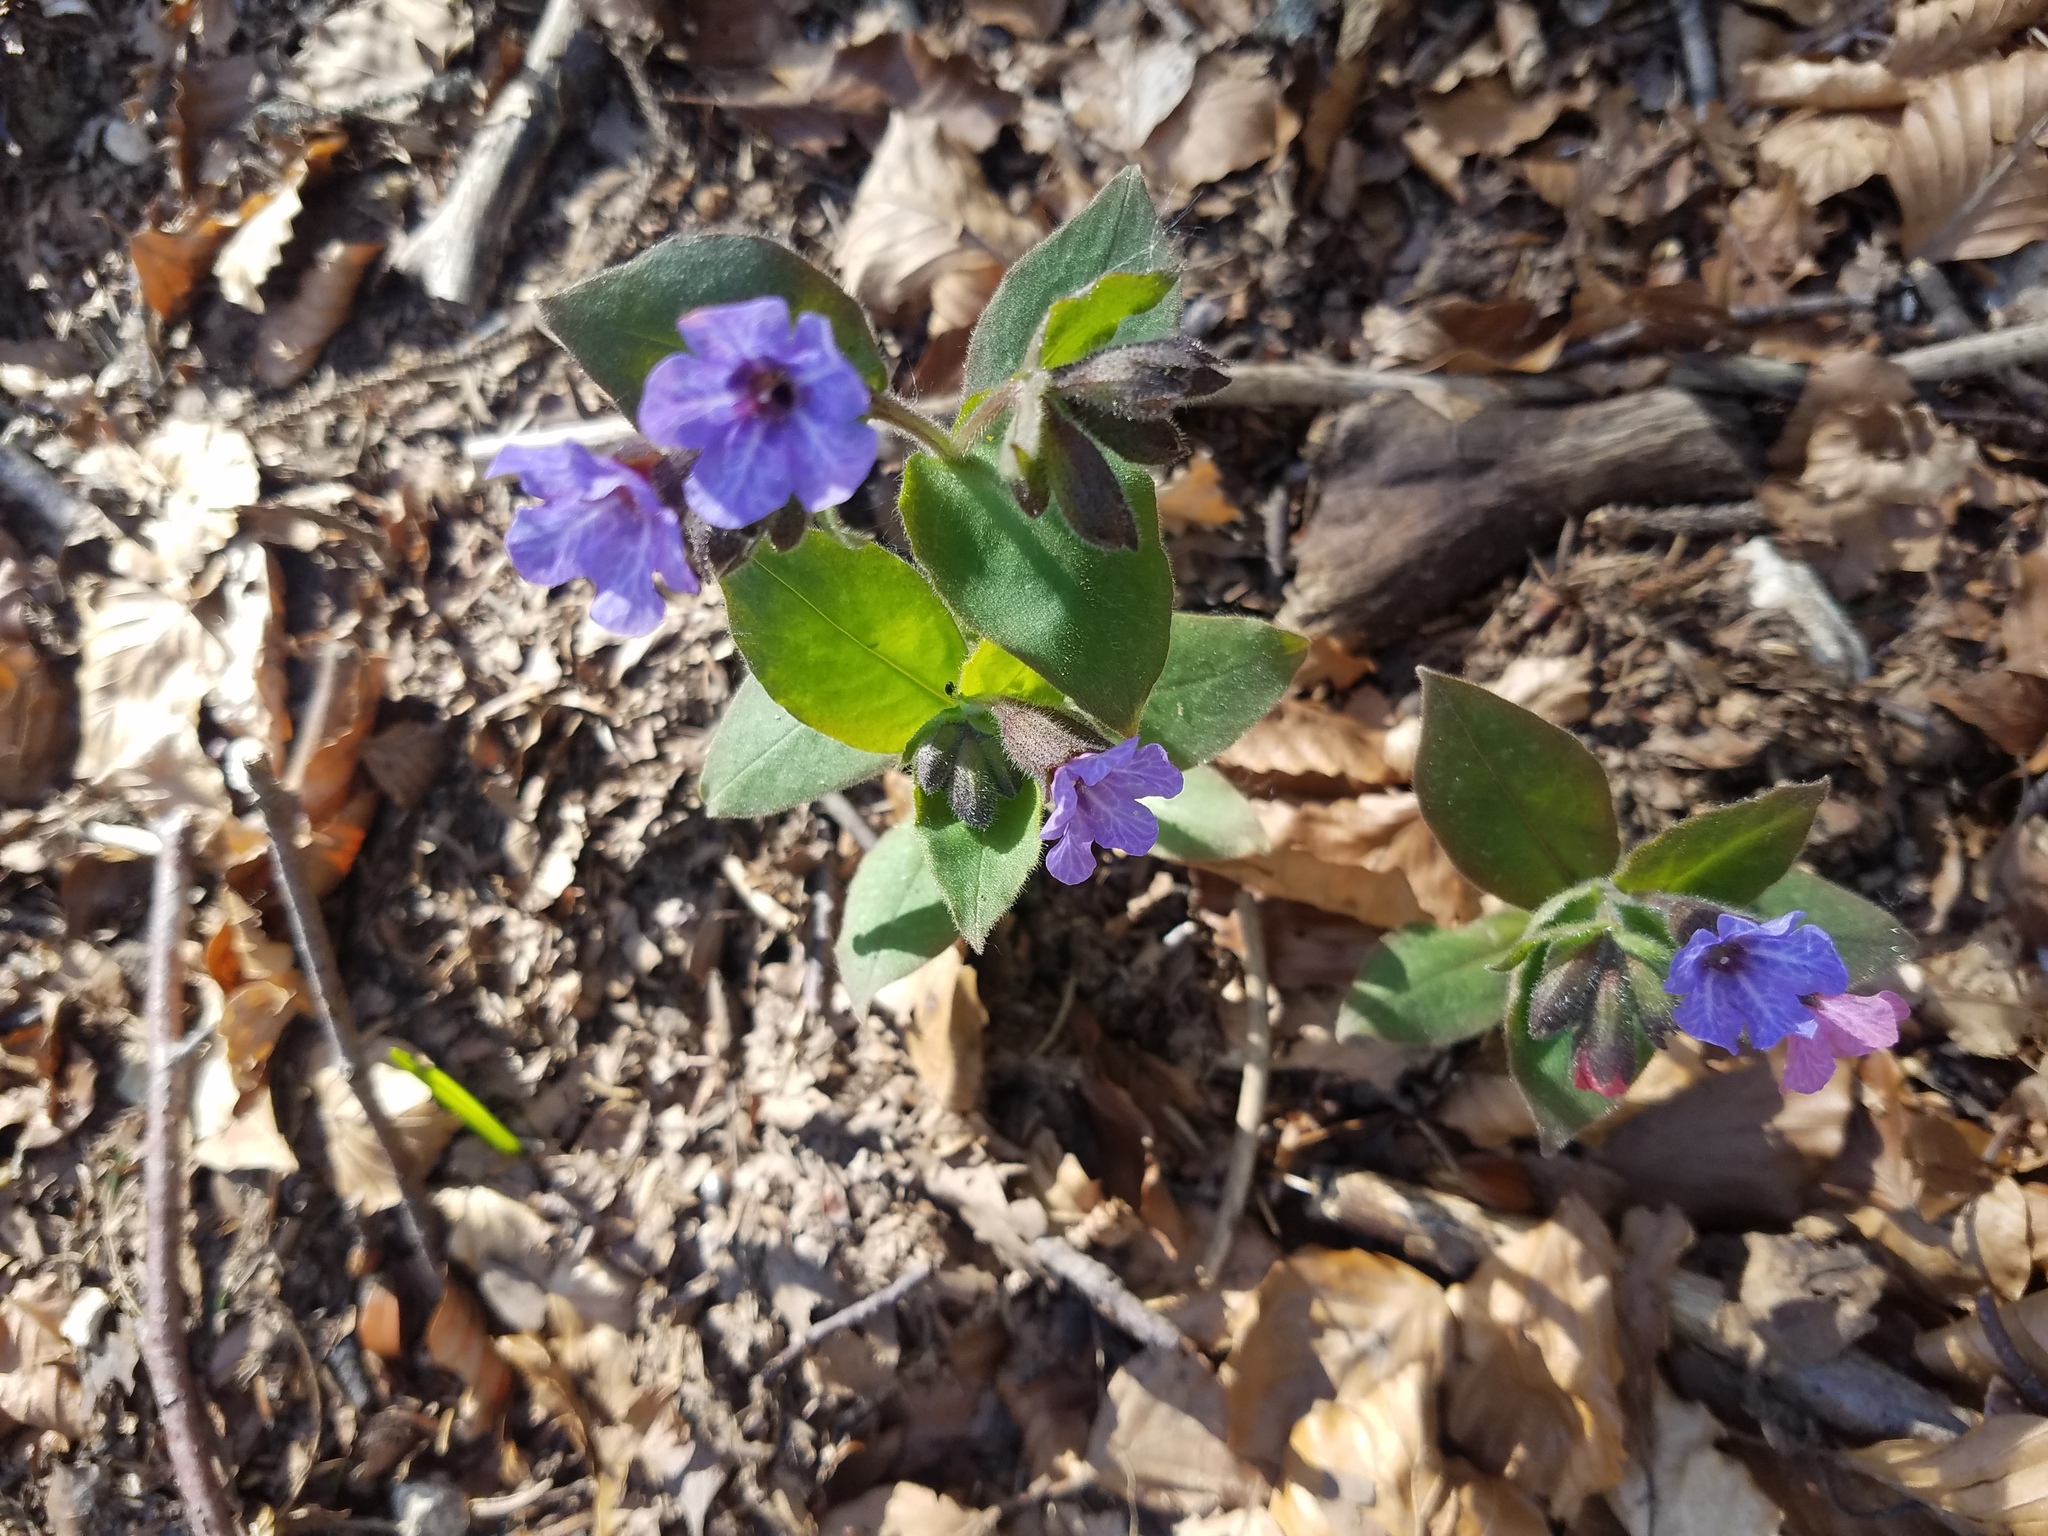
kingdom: Plantae
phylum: Tracheophyta
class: Magnoliopsida
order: Boraginales
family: Boraginaceae
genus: Pulmonaria
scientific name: Pulmonaria officinalis
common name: Lungwort
